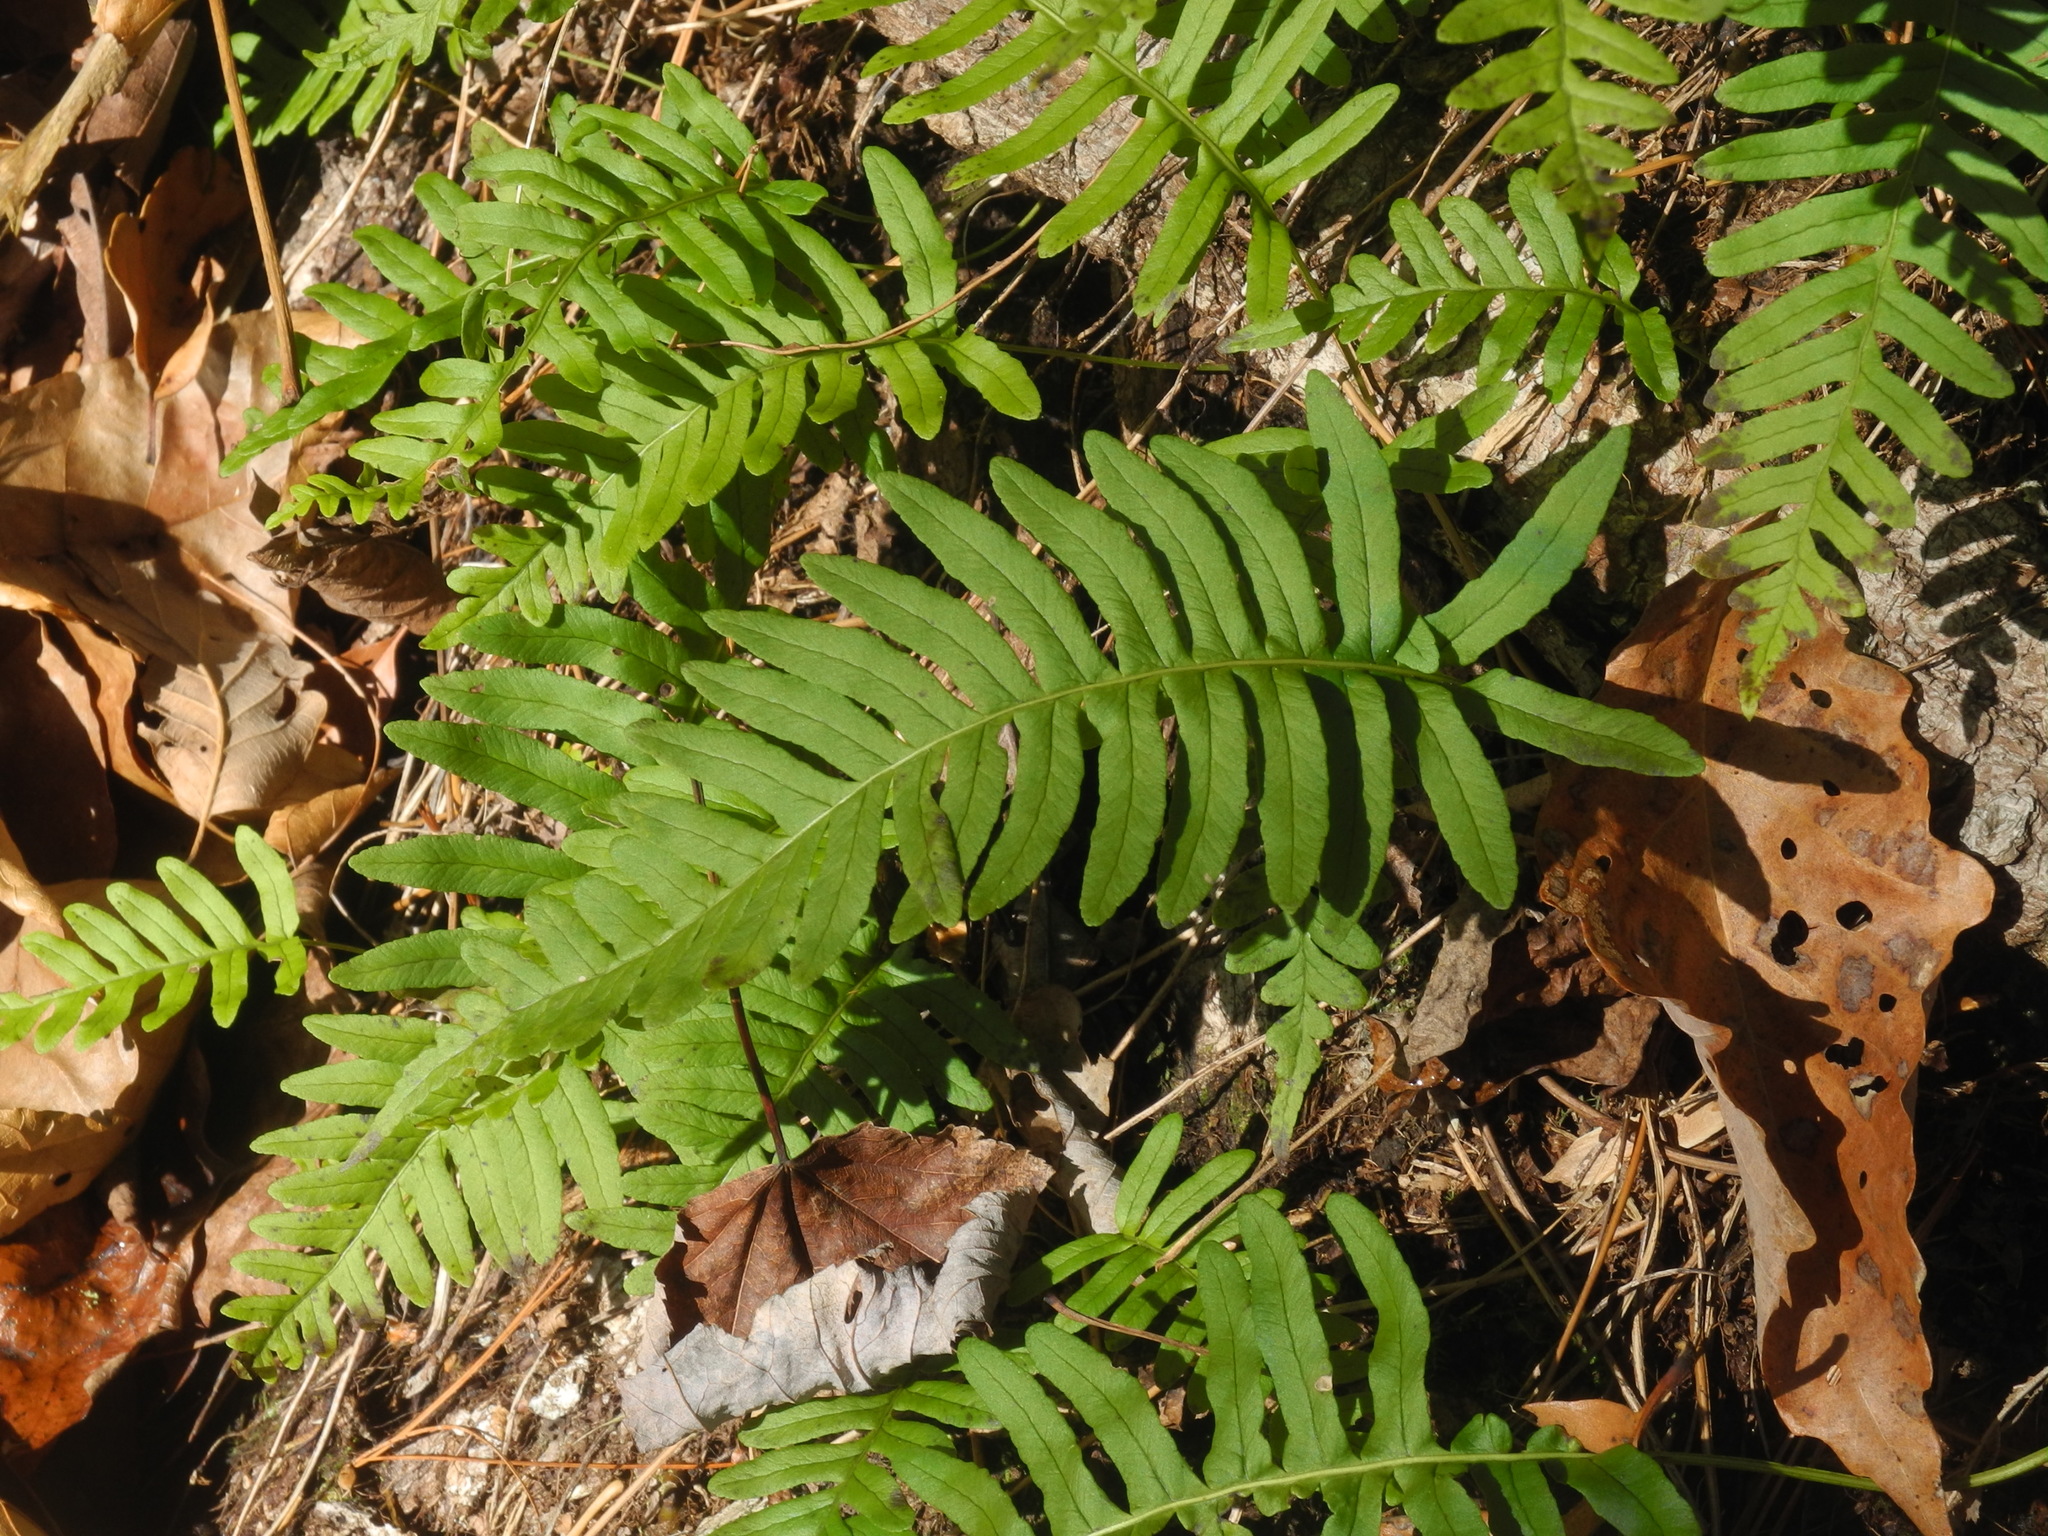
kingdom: Plantae
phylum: Tracheophyta
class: Polypodiopsida
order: Polypodiales
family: Polypodiaceae
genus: Polypodium
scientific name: Polypodium virginianum
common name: American wall fern
